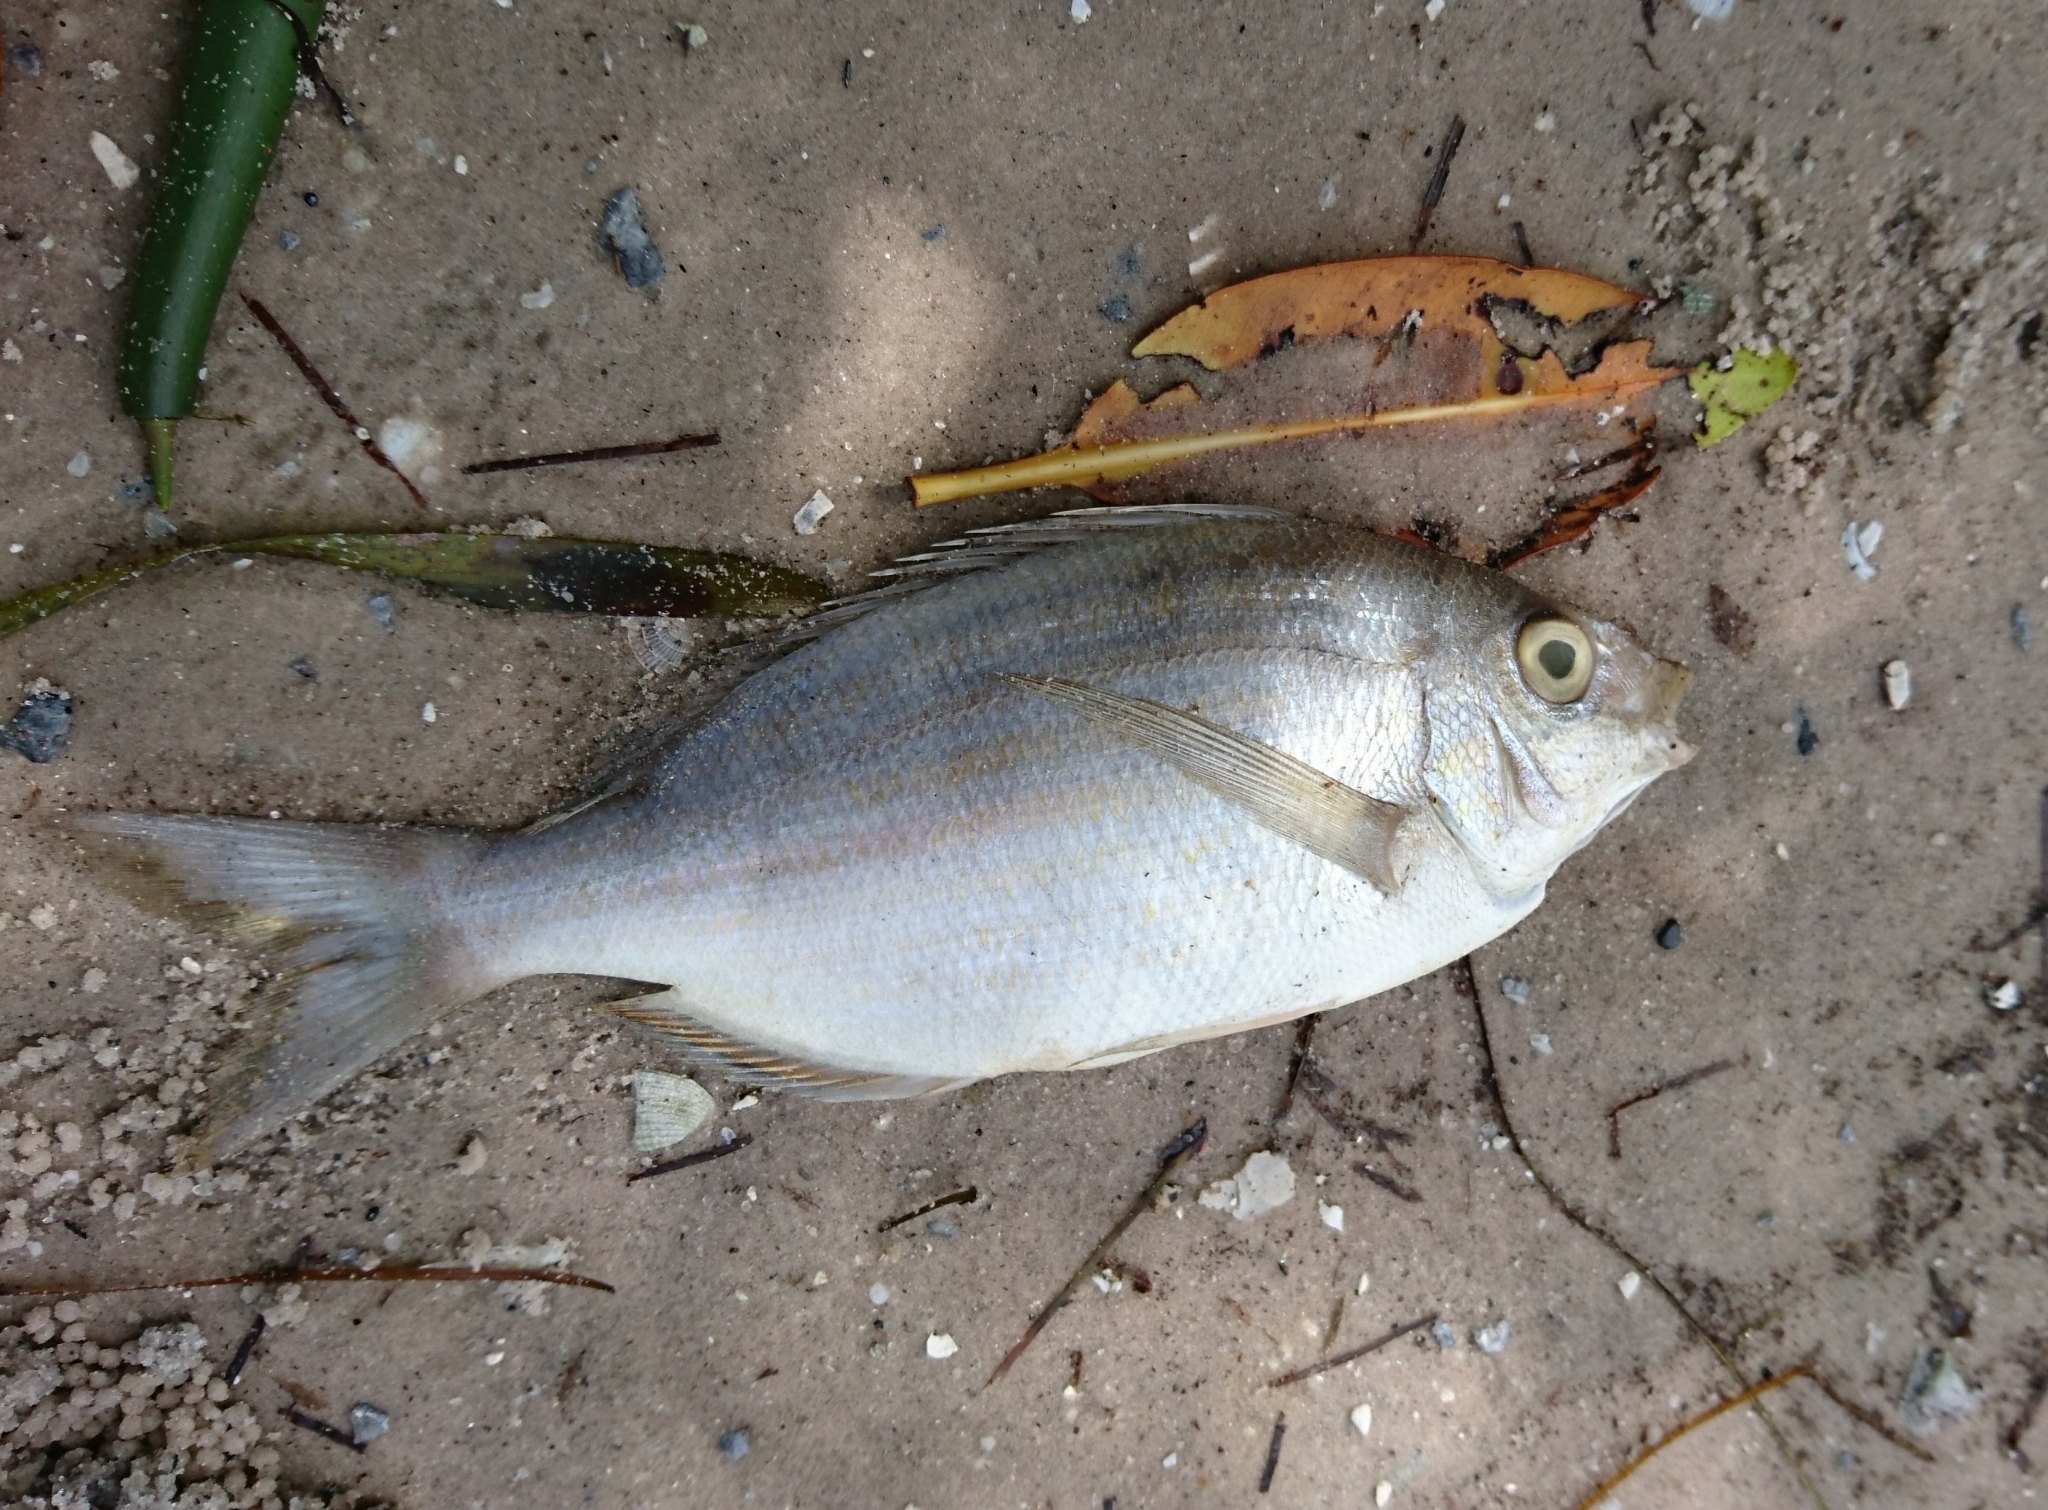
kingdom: Animalia
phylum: Chordata
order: Perciformes
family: Sparidae
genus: Lagodon
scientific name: Lagodon rhomboides
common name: Pinfish
